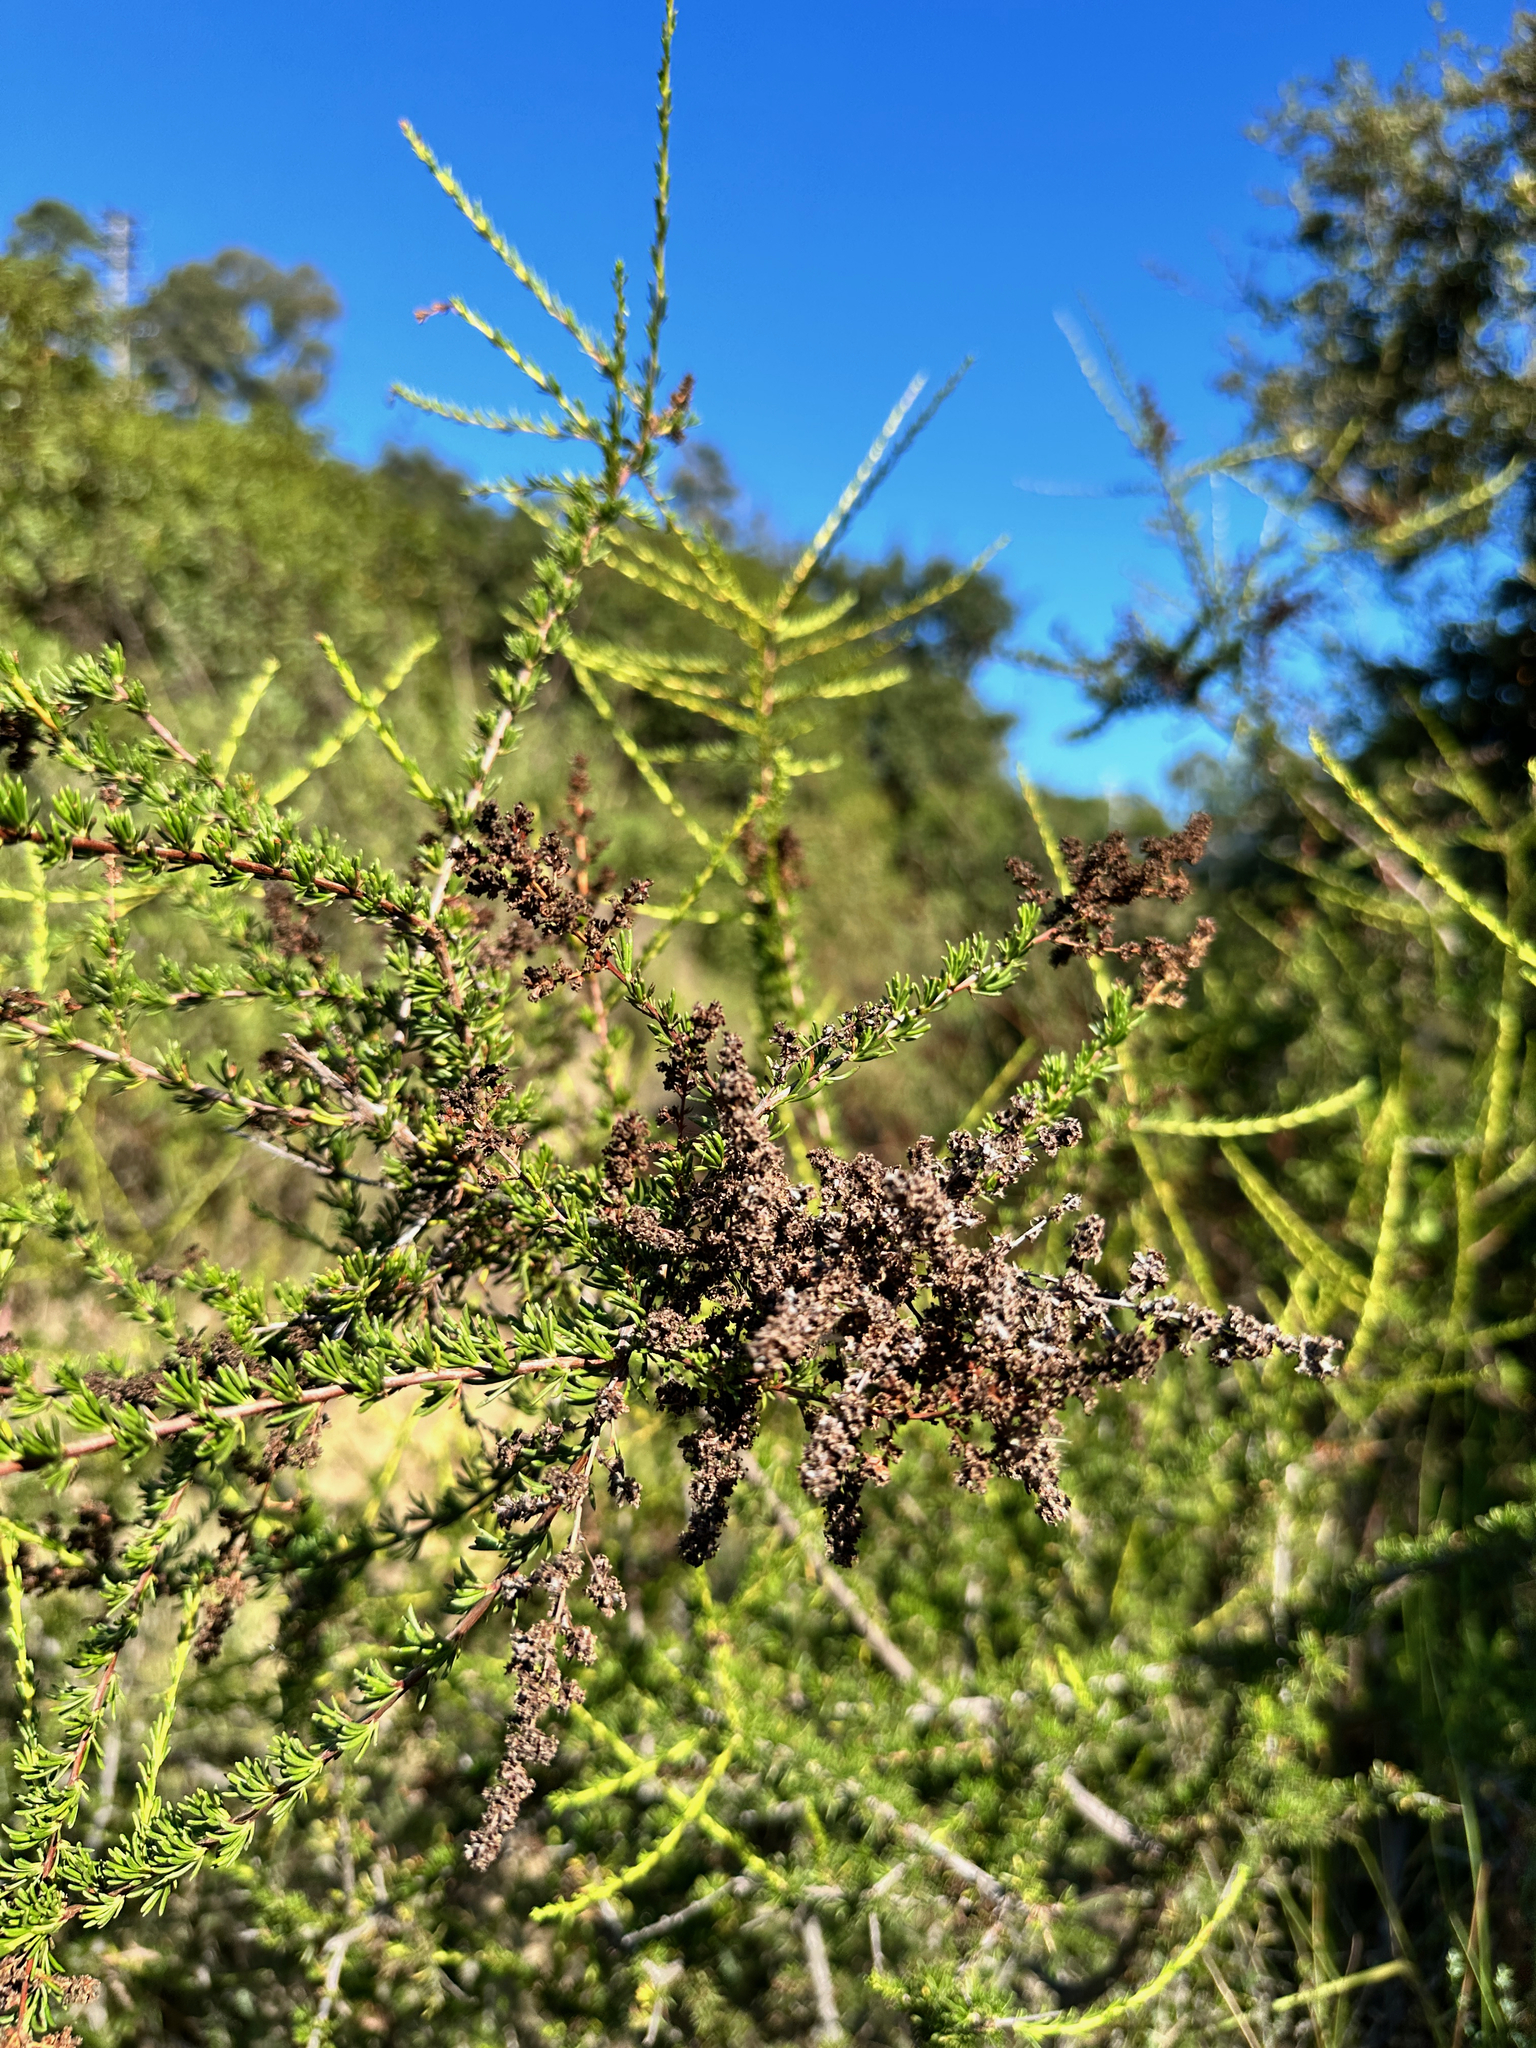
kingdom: Plantae
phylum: Tracheophyta
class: Magnoliopsida
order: Rosales
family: Rosaceae
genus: Adenostoma
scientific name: Adenostoma fasciculatum
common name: Chamise
